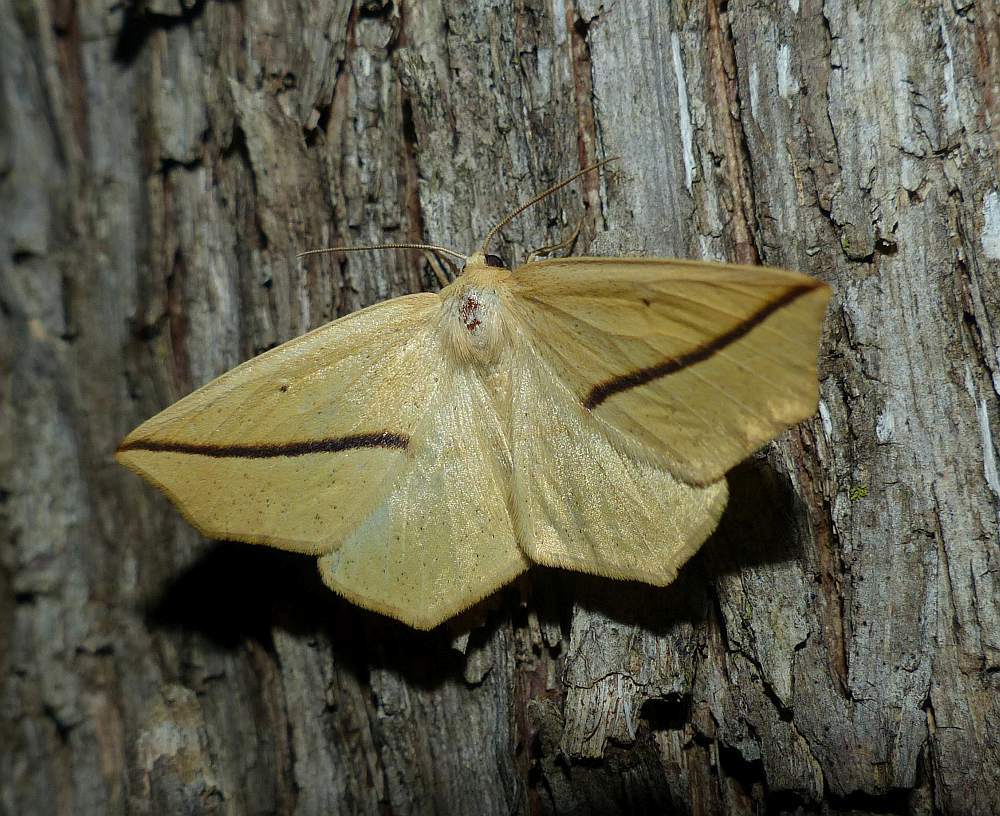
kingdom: Animalia
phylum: Arthropoda
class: Insecta
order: Lepidoptera
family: Geometridae
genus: Tetracis
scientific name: Tetracis crocallata
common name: Yellow slant-line
